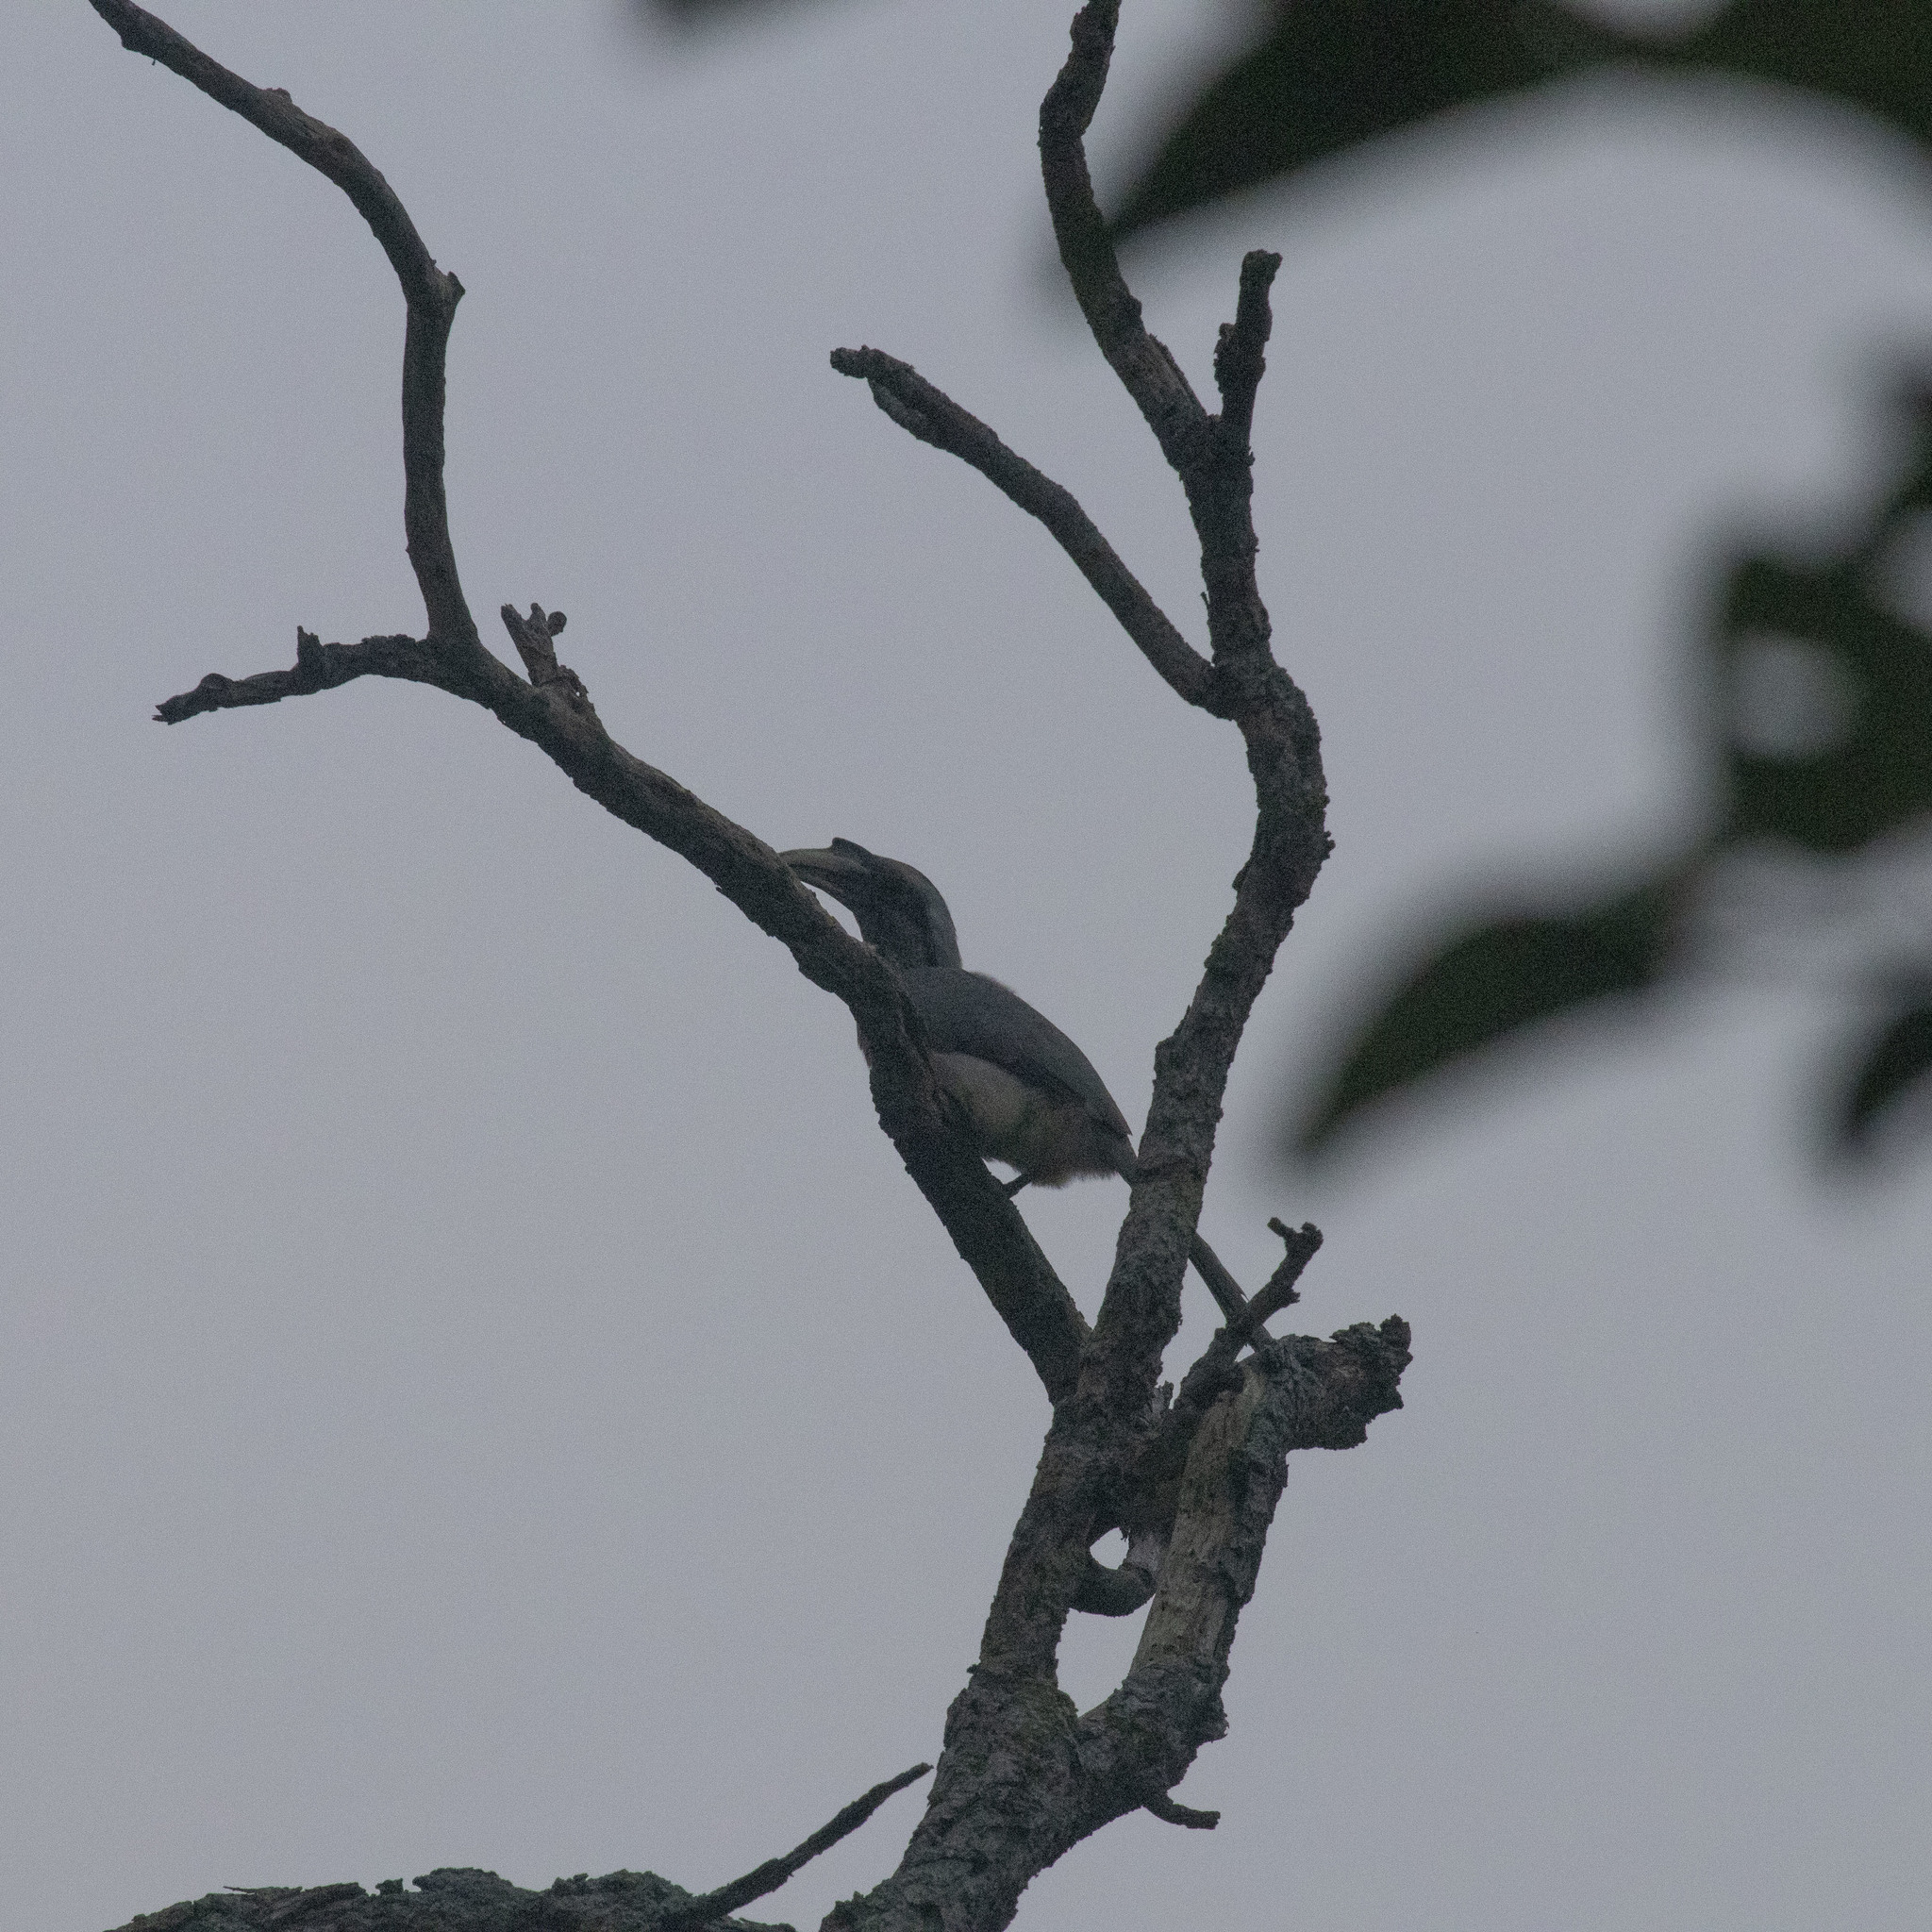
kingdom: Animalia
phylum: Chordata
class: Aves
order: Bucerotiformes
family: Bucerotidae
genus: Ocyceros
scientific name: Ocyceros birostris
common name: Indian grey hornbill
